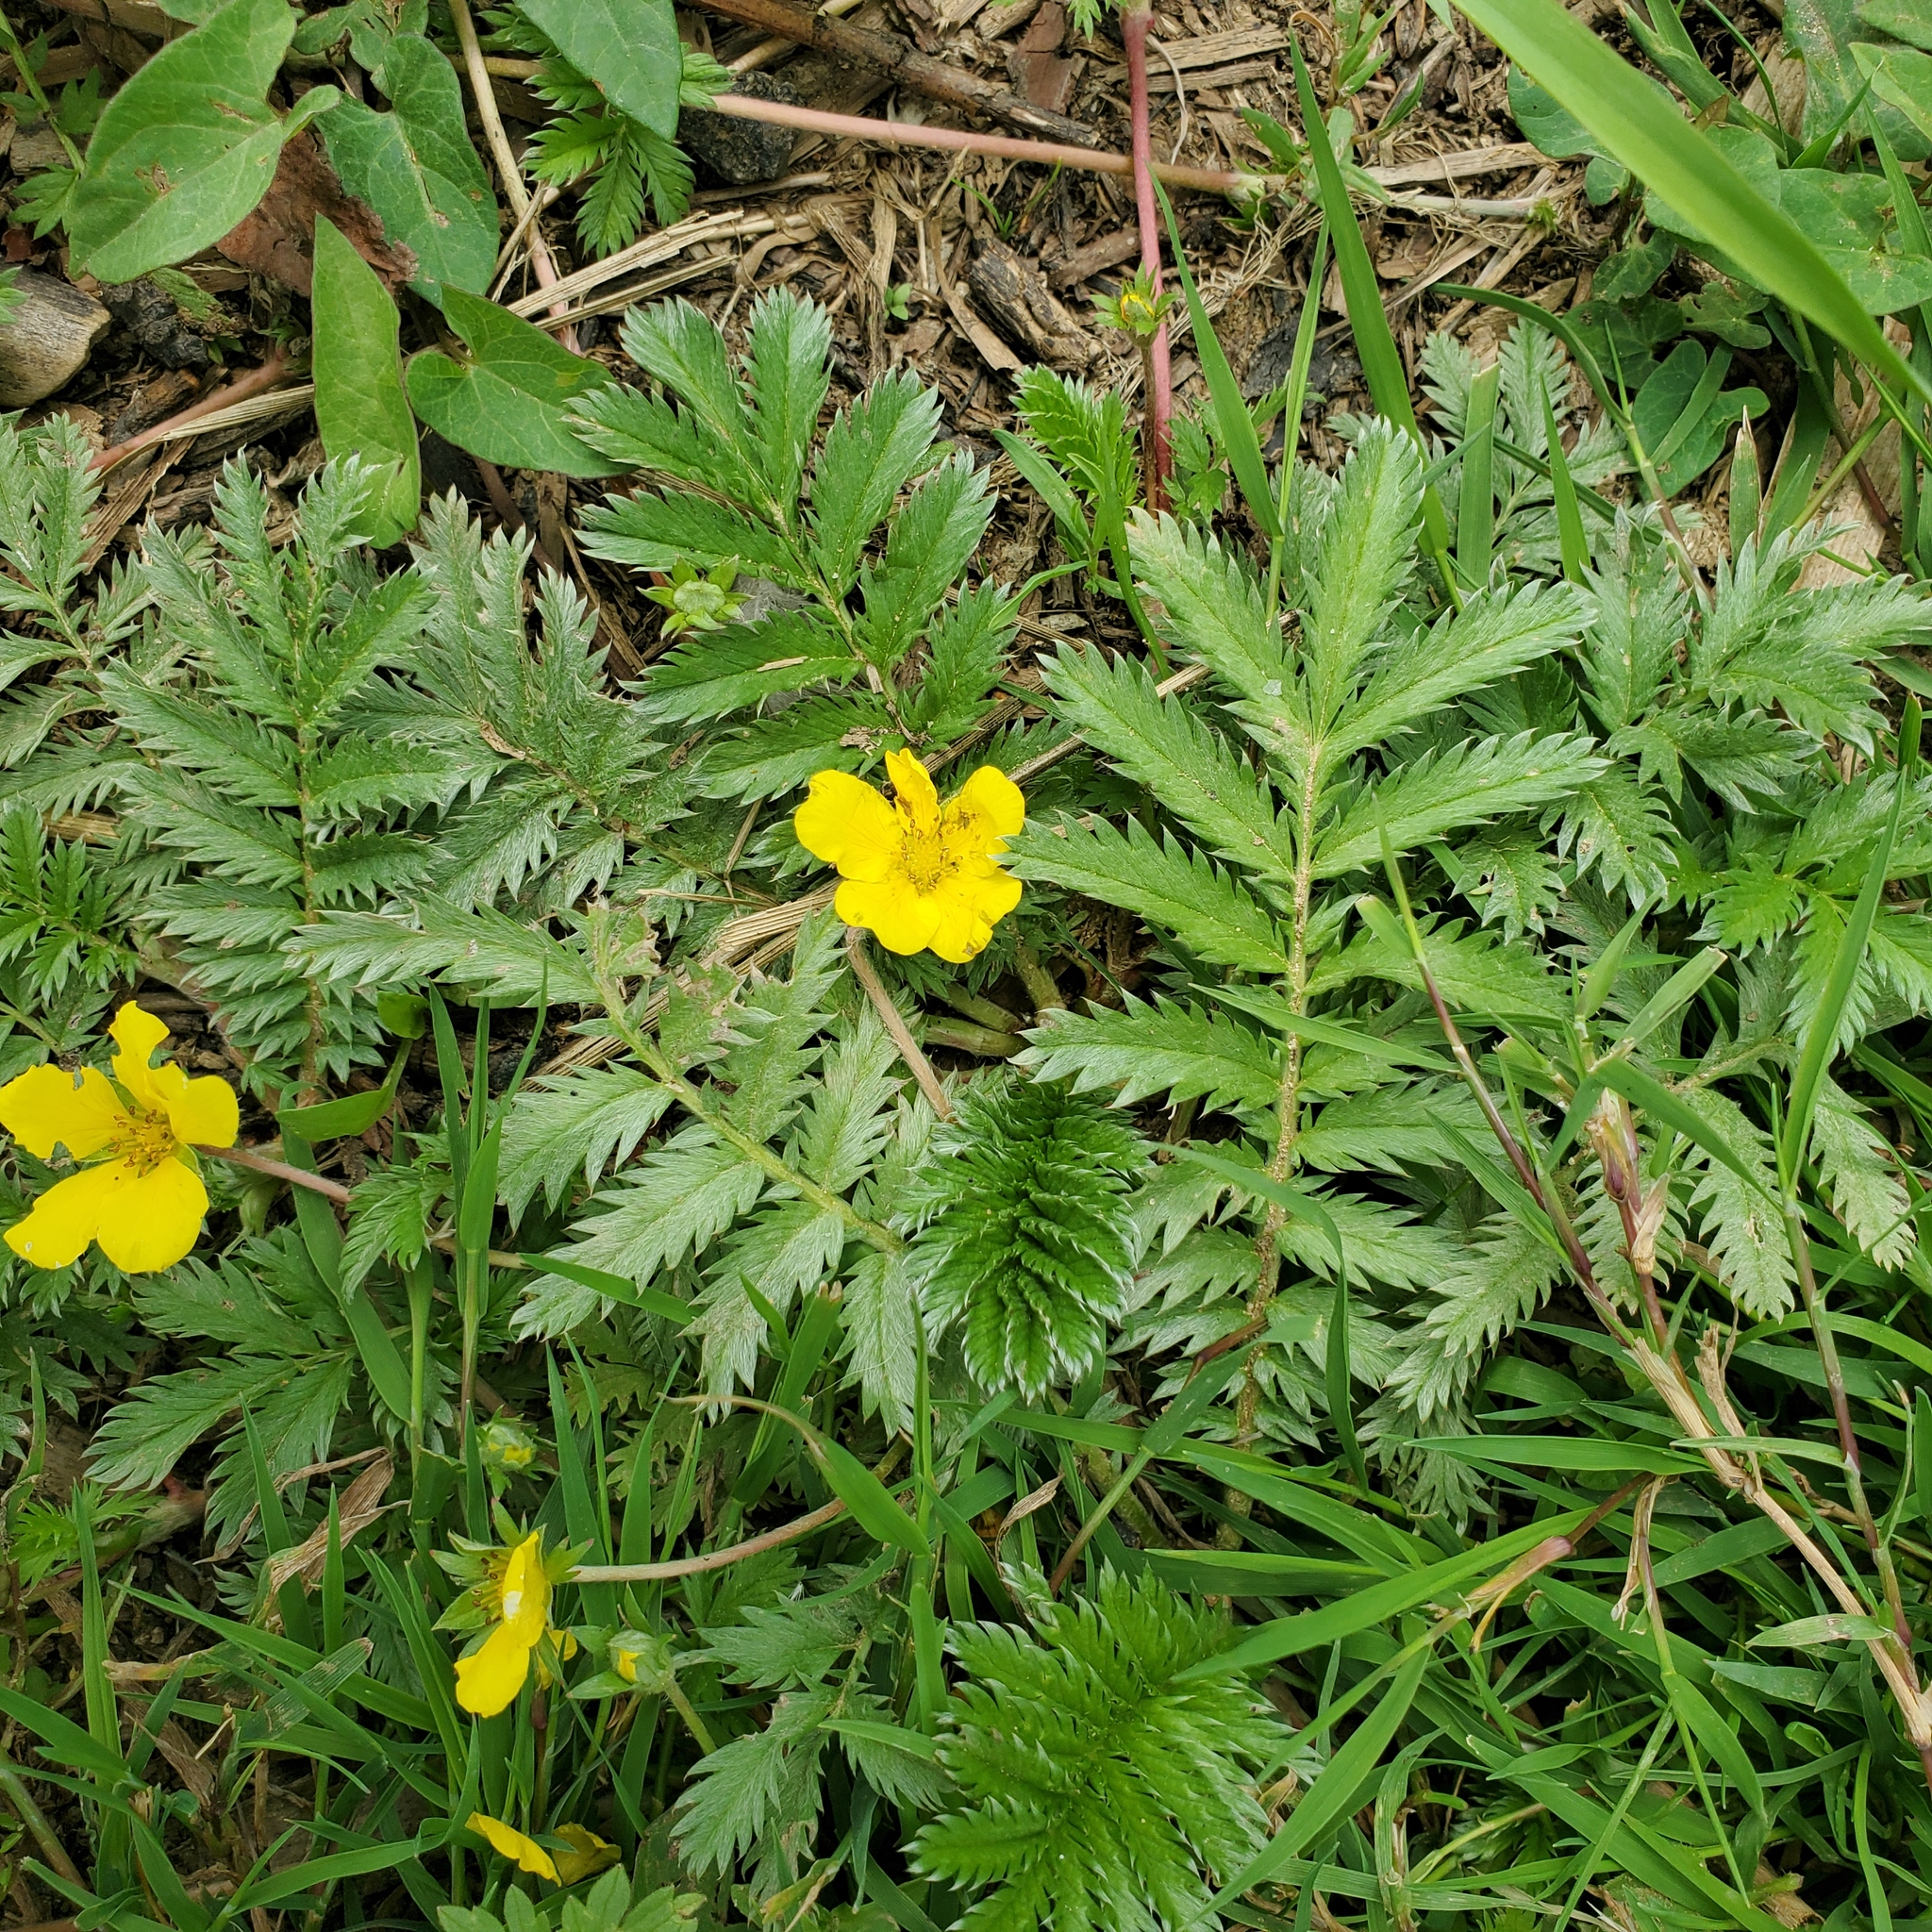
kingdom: Plantae
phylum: Tracheophyta
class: Magnoliopsida
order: Rosales
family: Rosaceae
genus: Argentina
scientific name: Argentina anserina
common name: Common silverweed
